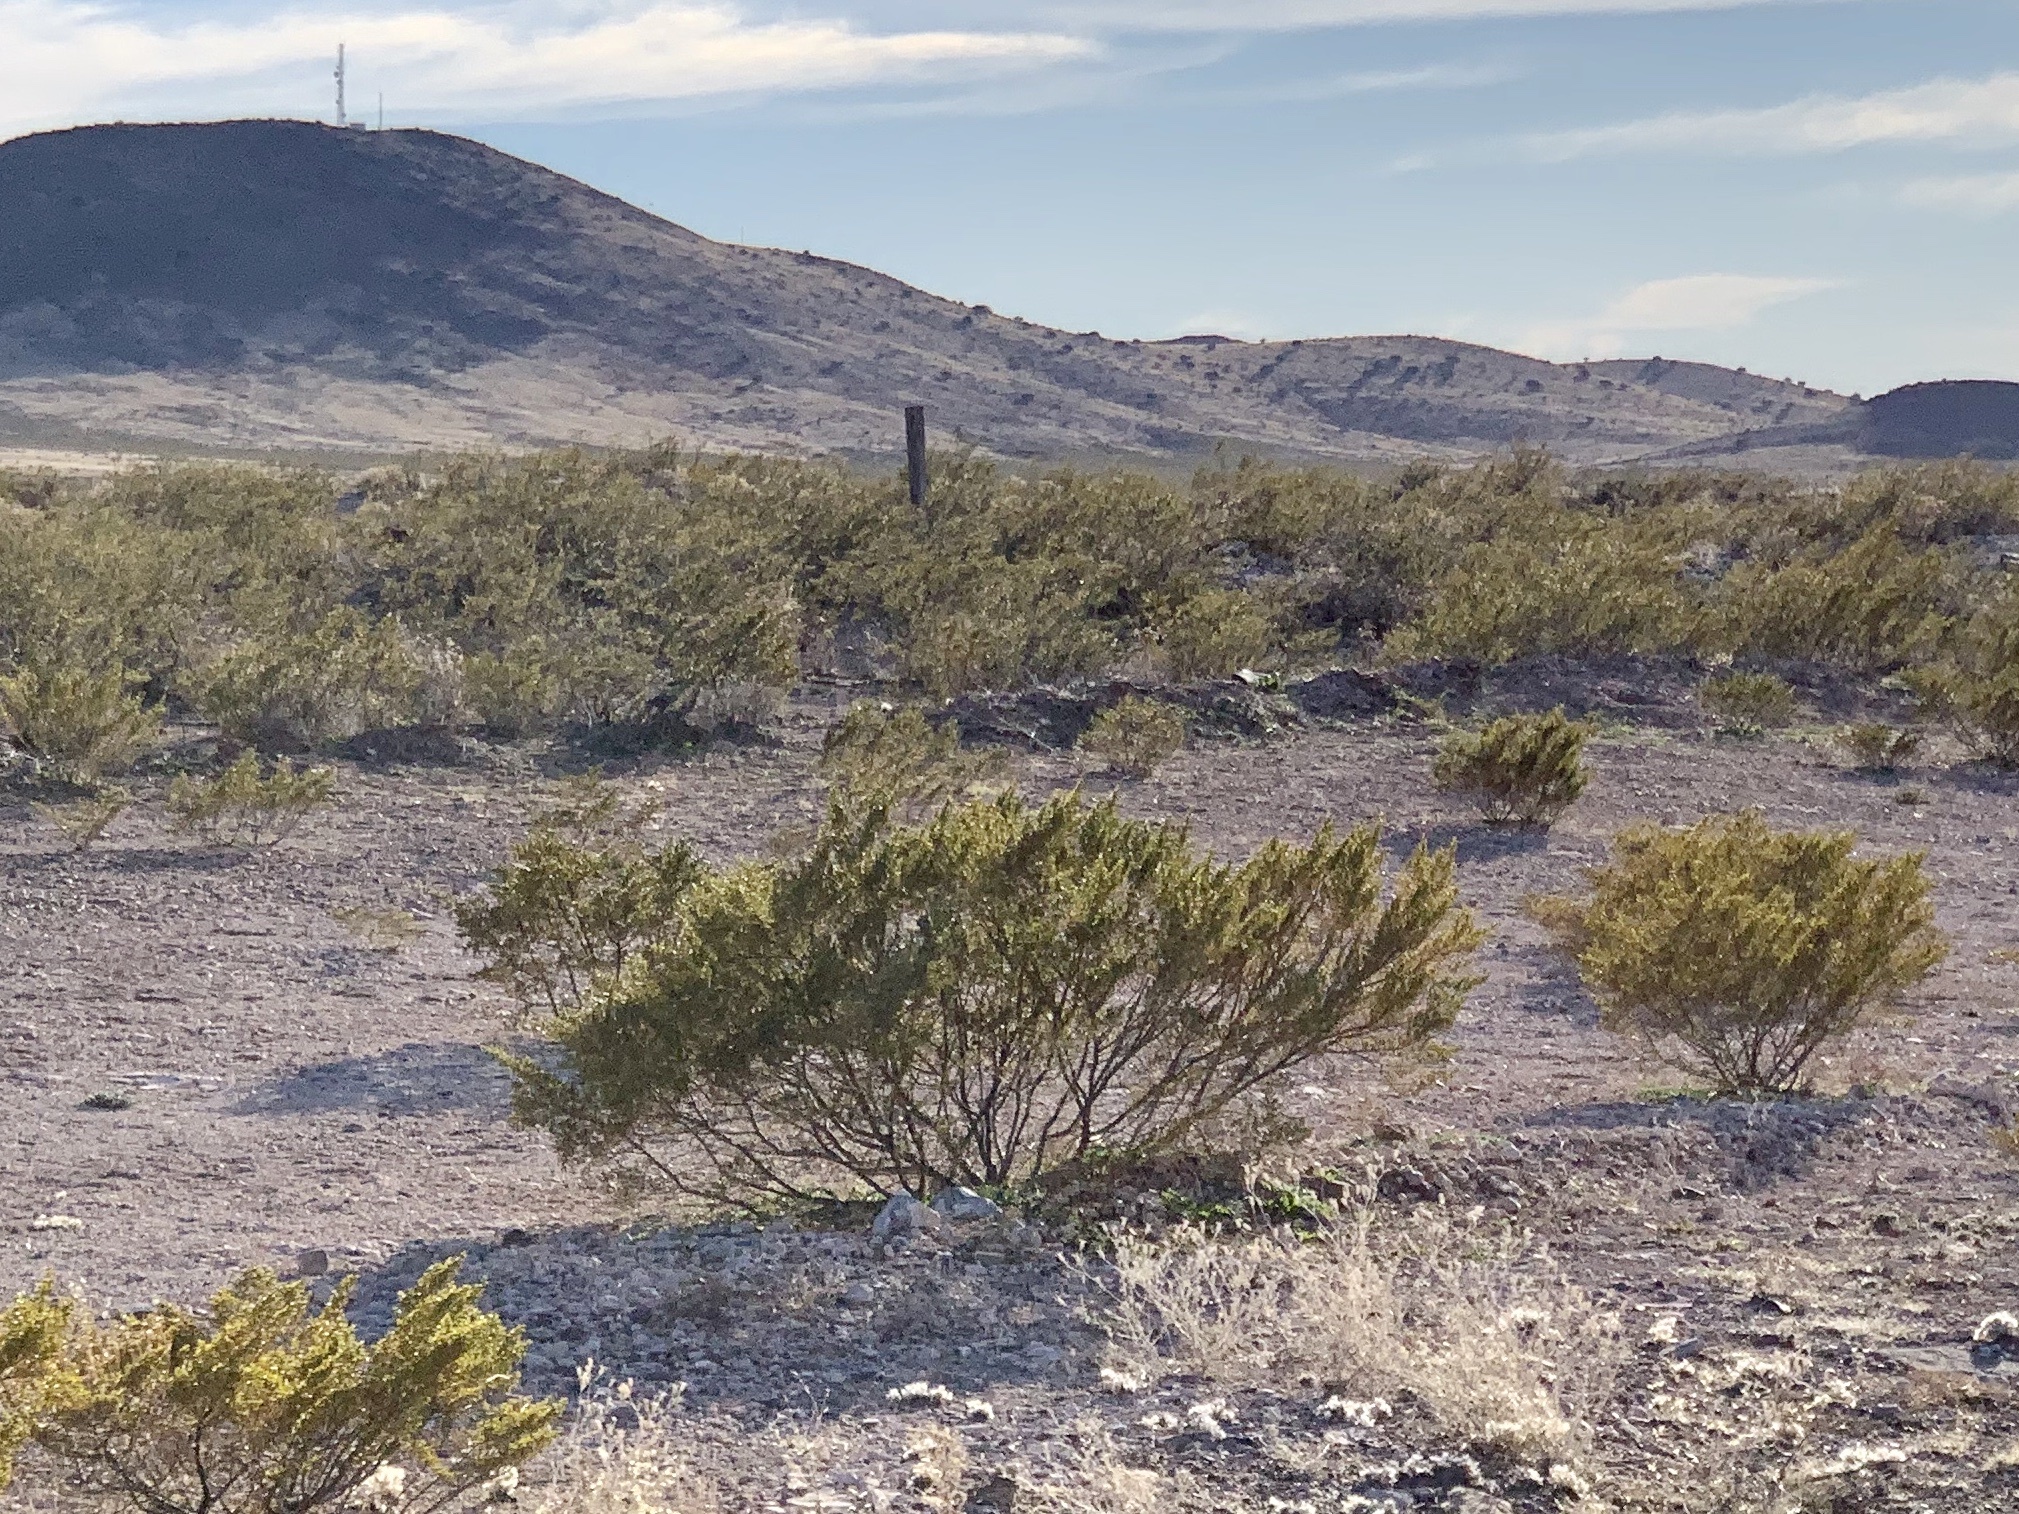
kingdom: Plantae
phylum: Tracheophyta
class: Magnoliopsida
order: Zygophyllales
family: Zygophyllaceae
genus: Larrea
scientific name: Larrea tridentata
